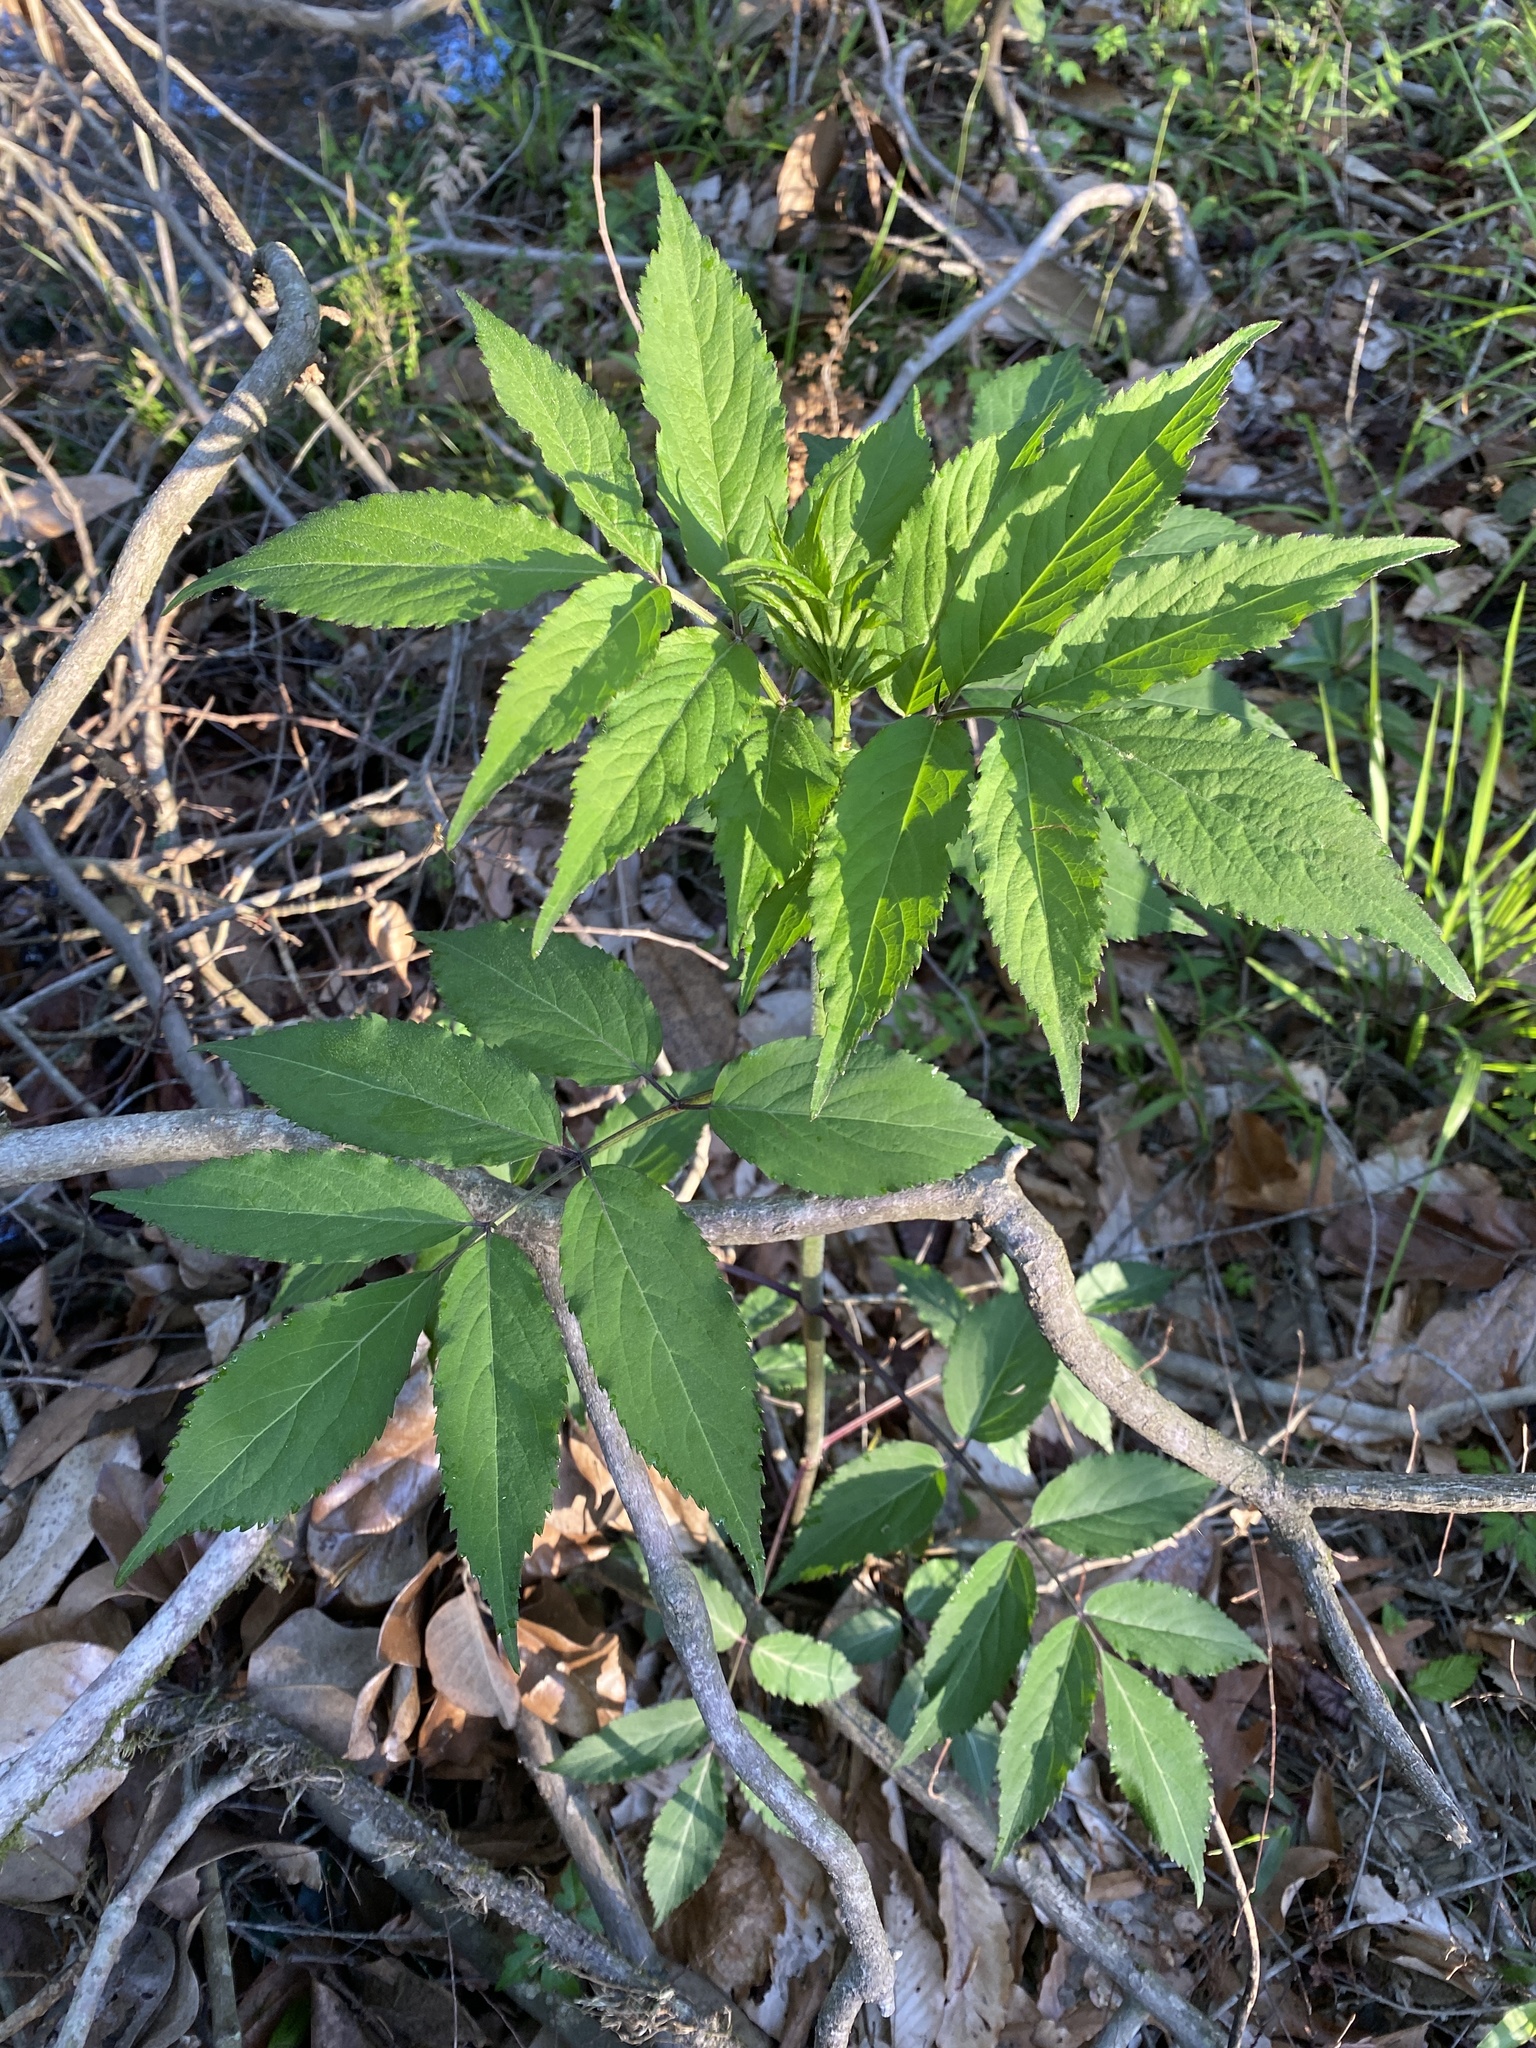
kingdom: Plantae
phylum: Tracheophyta
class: Magnoliopsida
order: Dipsacales
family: Viburnaceae
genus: Sambucus
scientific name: Sambucus canadensis
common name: American elder
